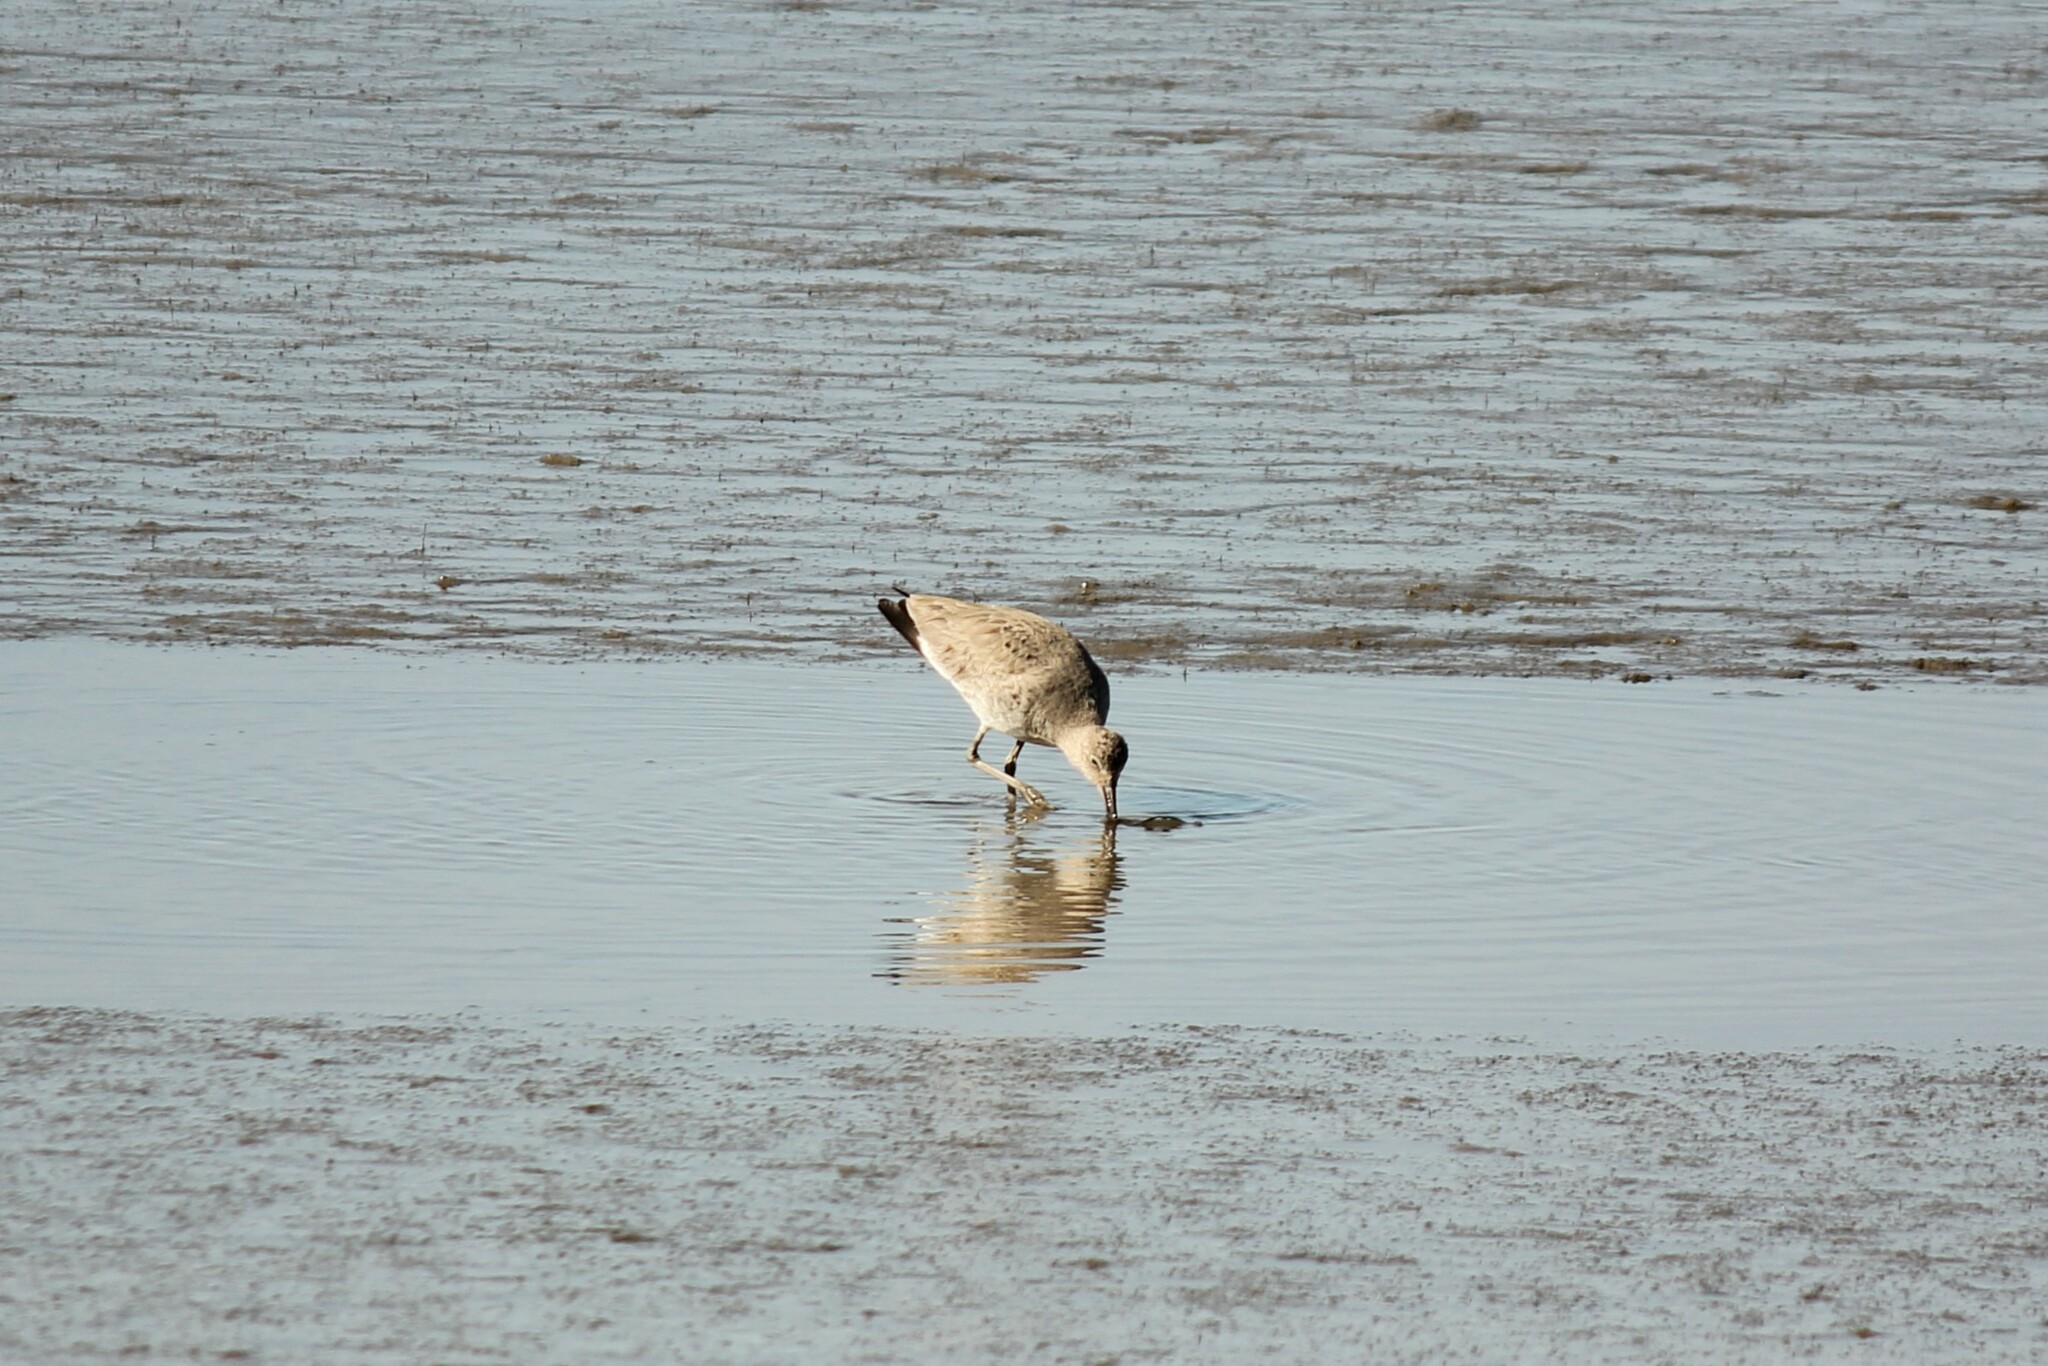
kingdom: Animalia
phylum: Chordata
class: Aves
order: Charadriiformes
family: Scolopacidae
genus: Tringa
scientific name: Tringa semipalmata
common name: Willet
